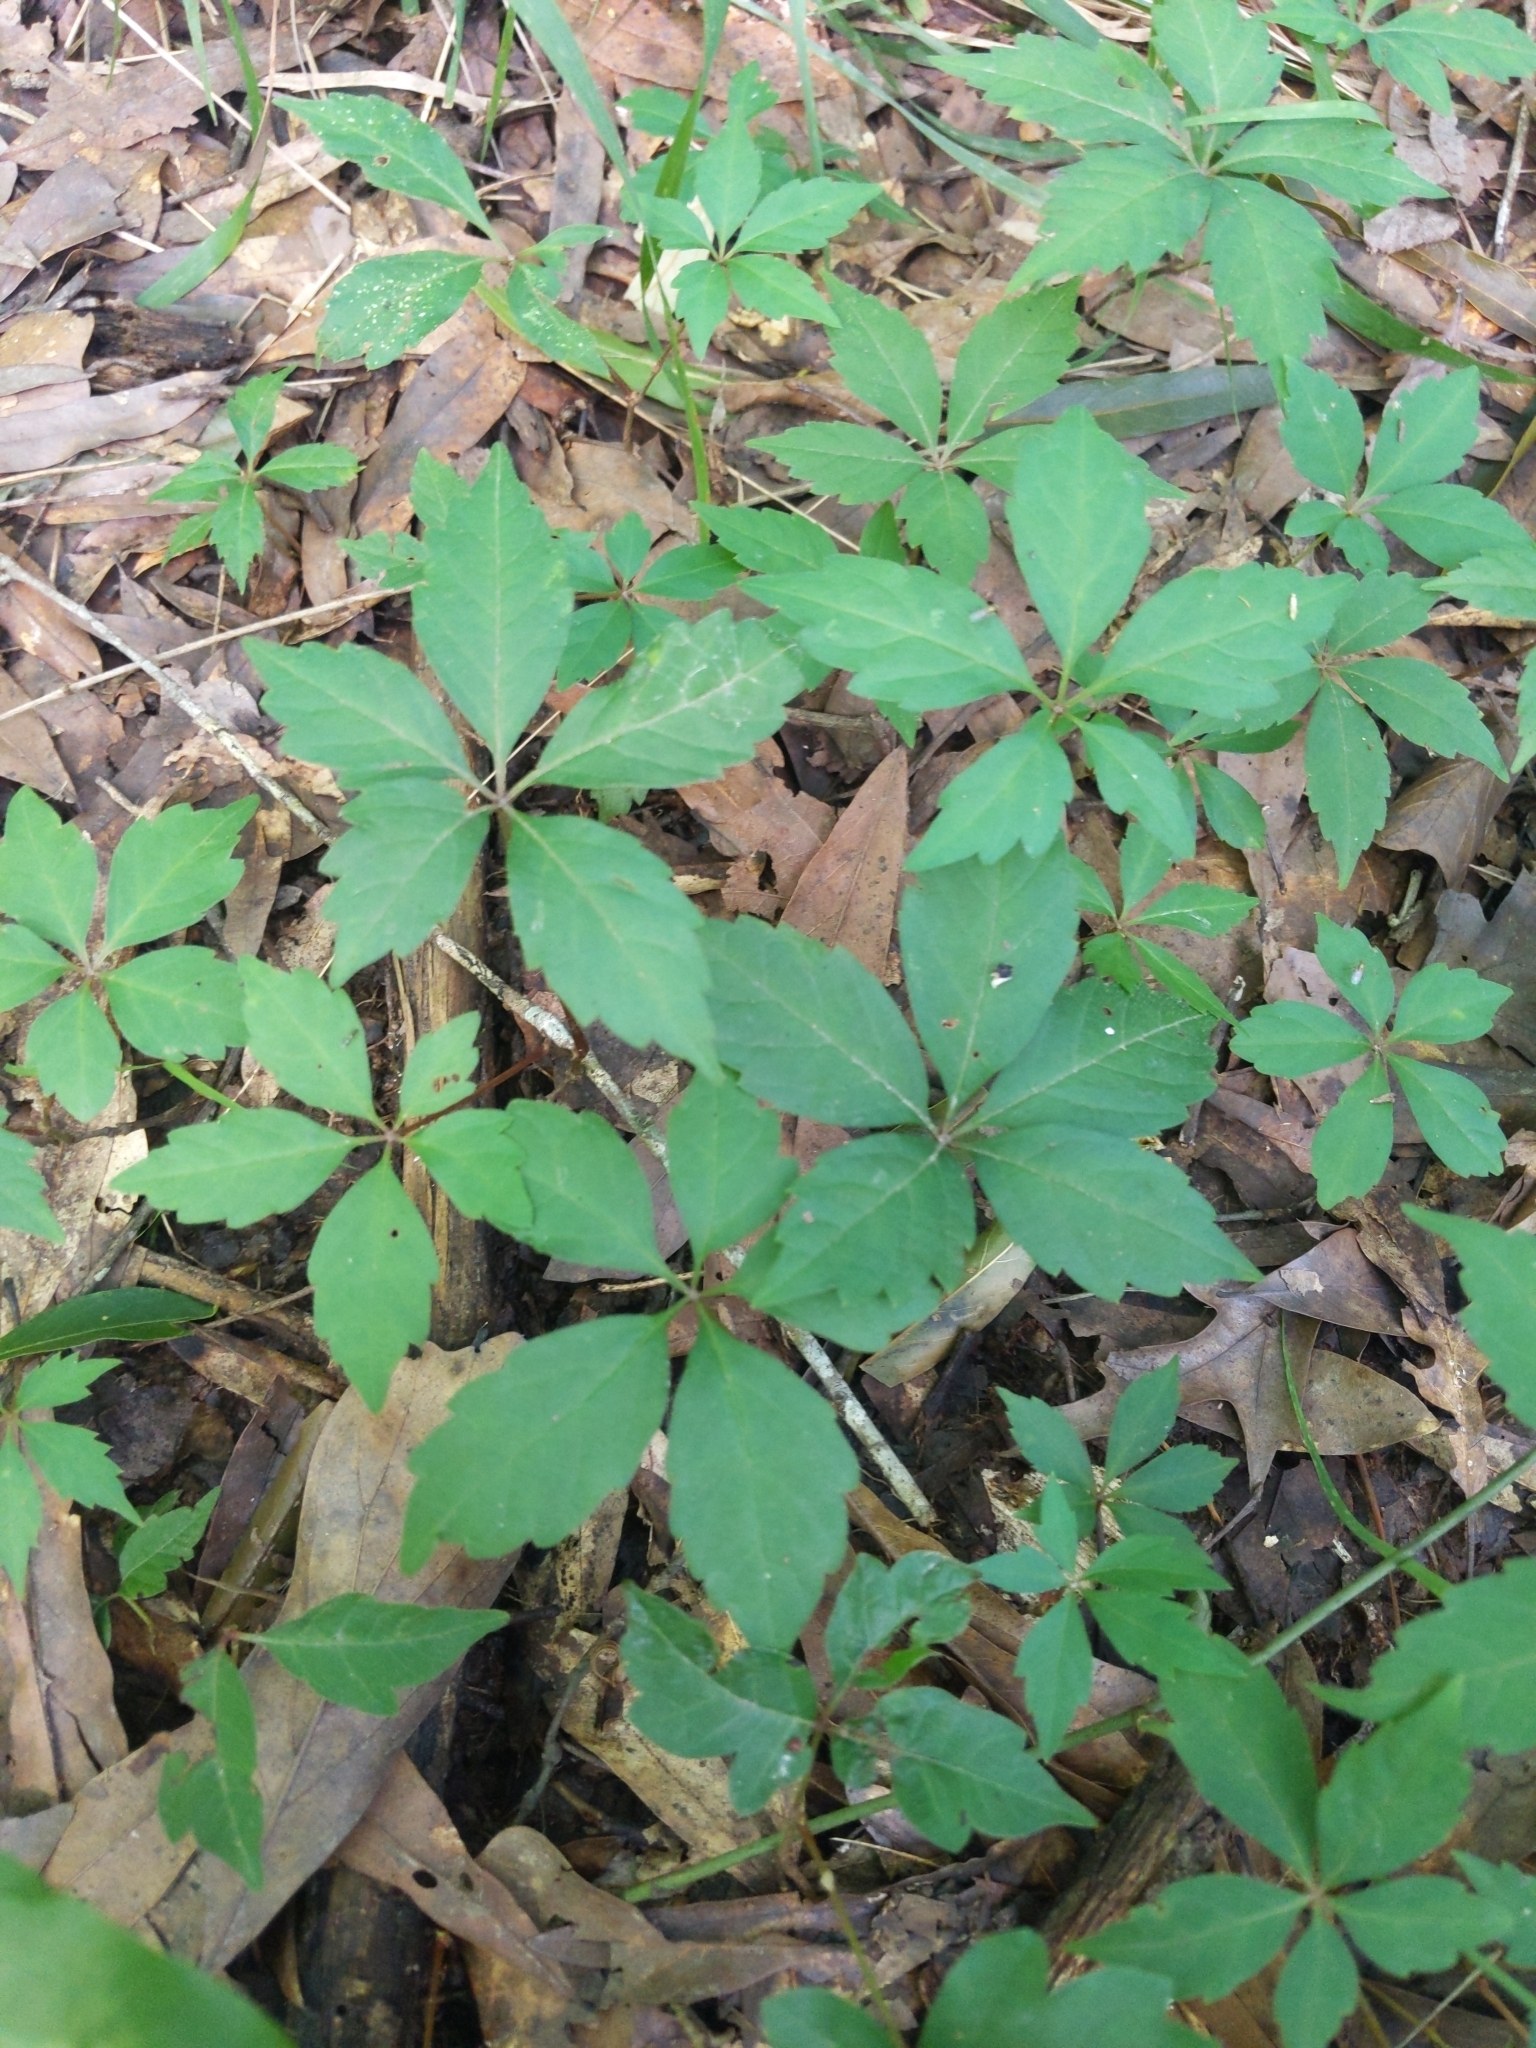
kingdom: Plantae
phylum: Tracheophyta
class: Magnoliopsida
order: Vitales
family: Vitaceae
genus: Parthenocissus
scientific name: Parthenocissus quinquefolia
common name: Virginia-creeper
